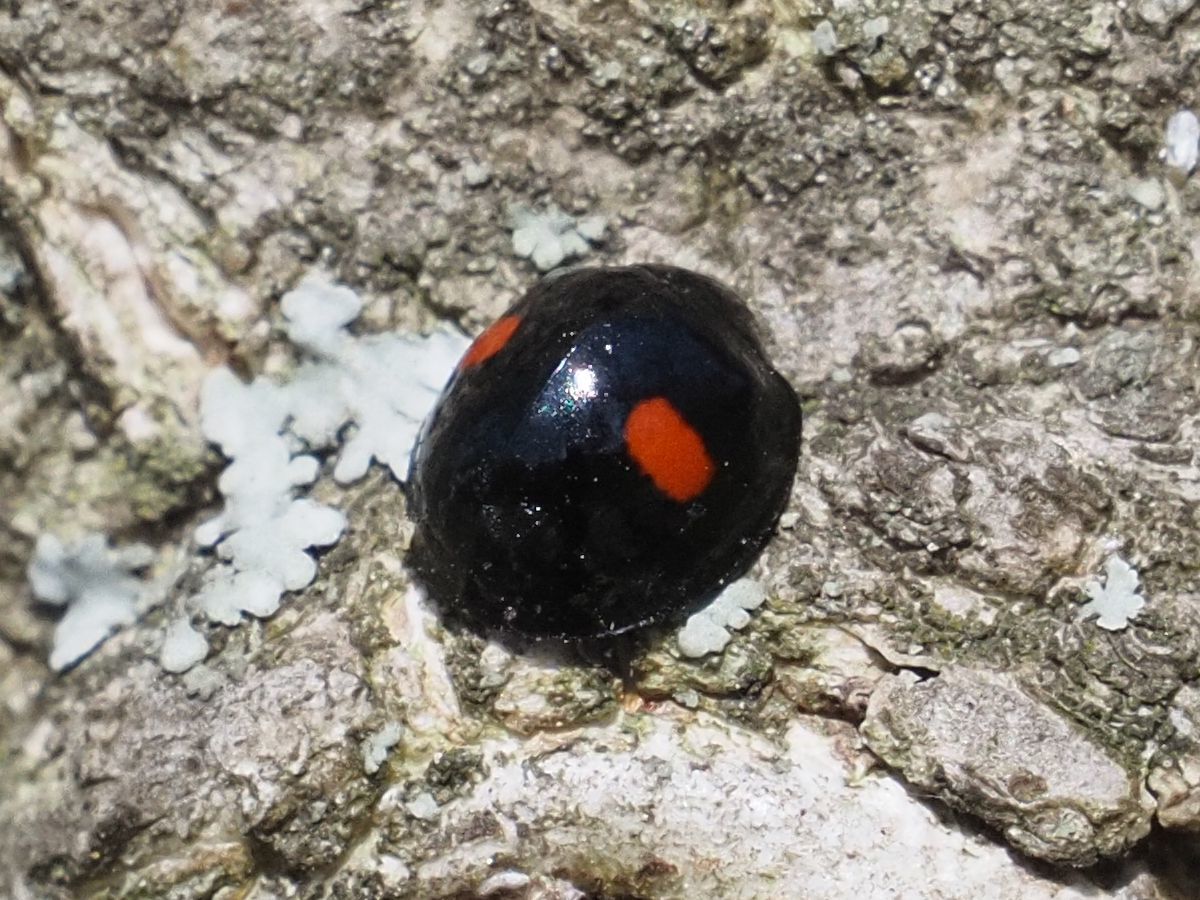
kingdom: Animalia
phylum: Arthropoda
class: Insecta
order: Coleoptera
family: Coccinellidae
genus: Chilocorus
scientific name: Chilocorus renipustulatus
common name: Kidney-spot ladybird
